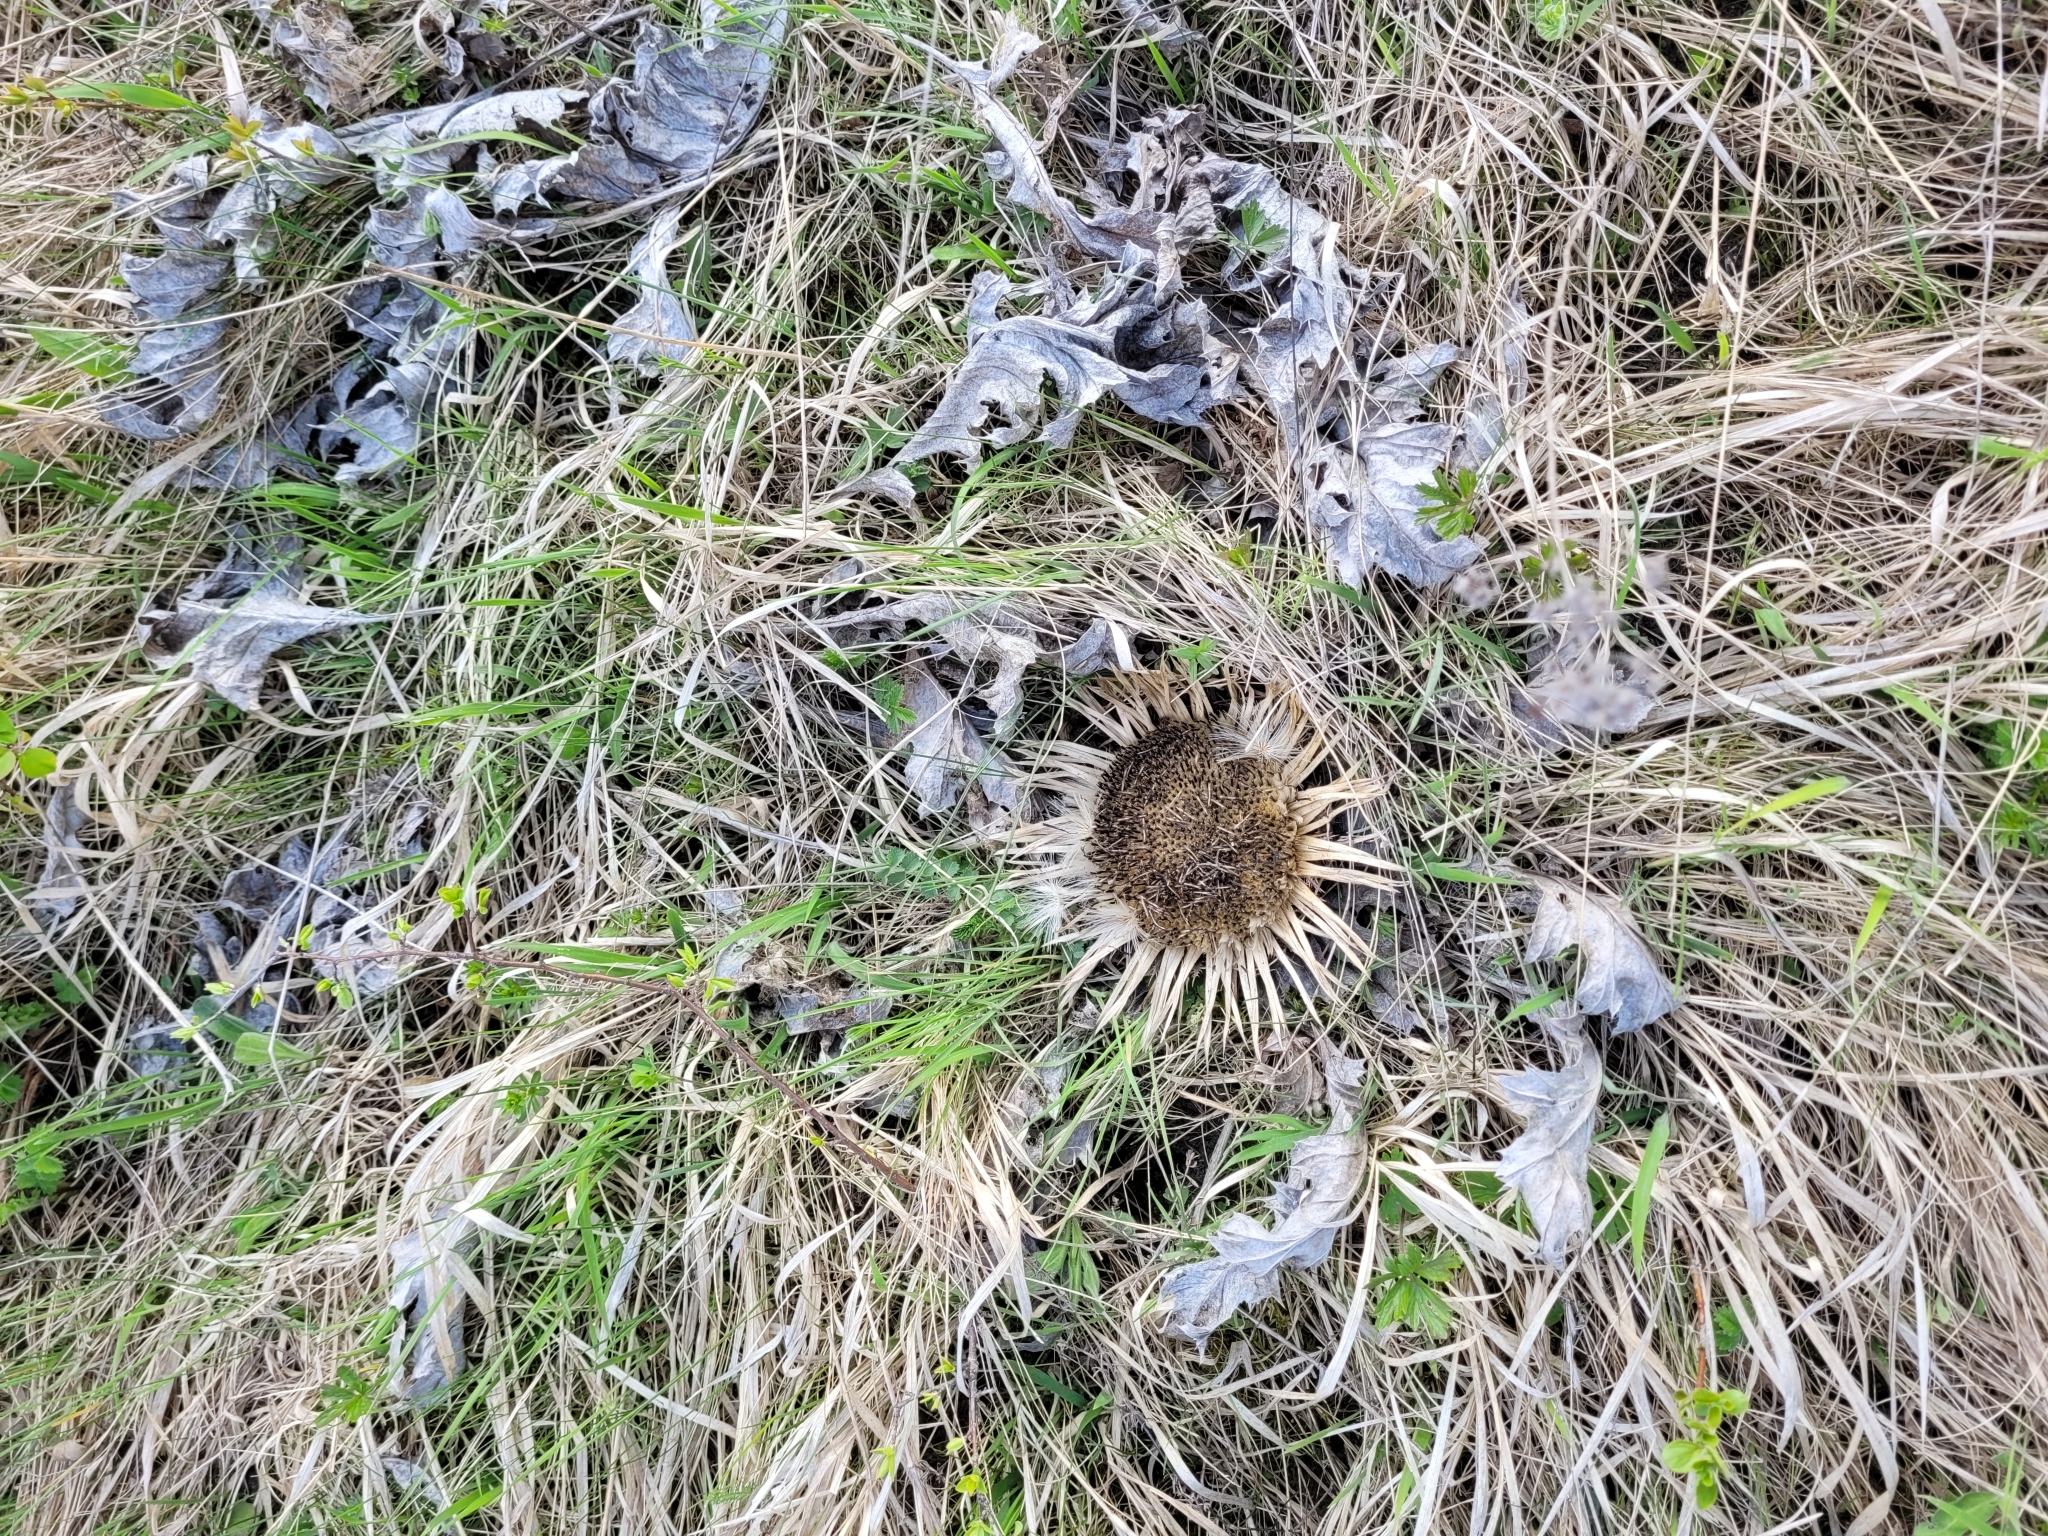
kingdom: Plantae
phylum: Tracheophyta
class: Magnoliopsida
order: Asterales
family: Asteraceae
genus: Carlina
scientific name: Carlina acanthifolia
